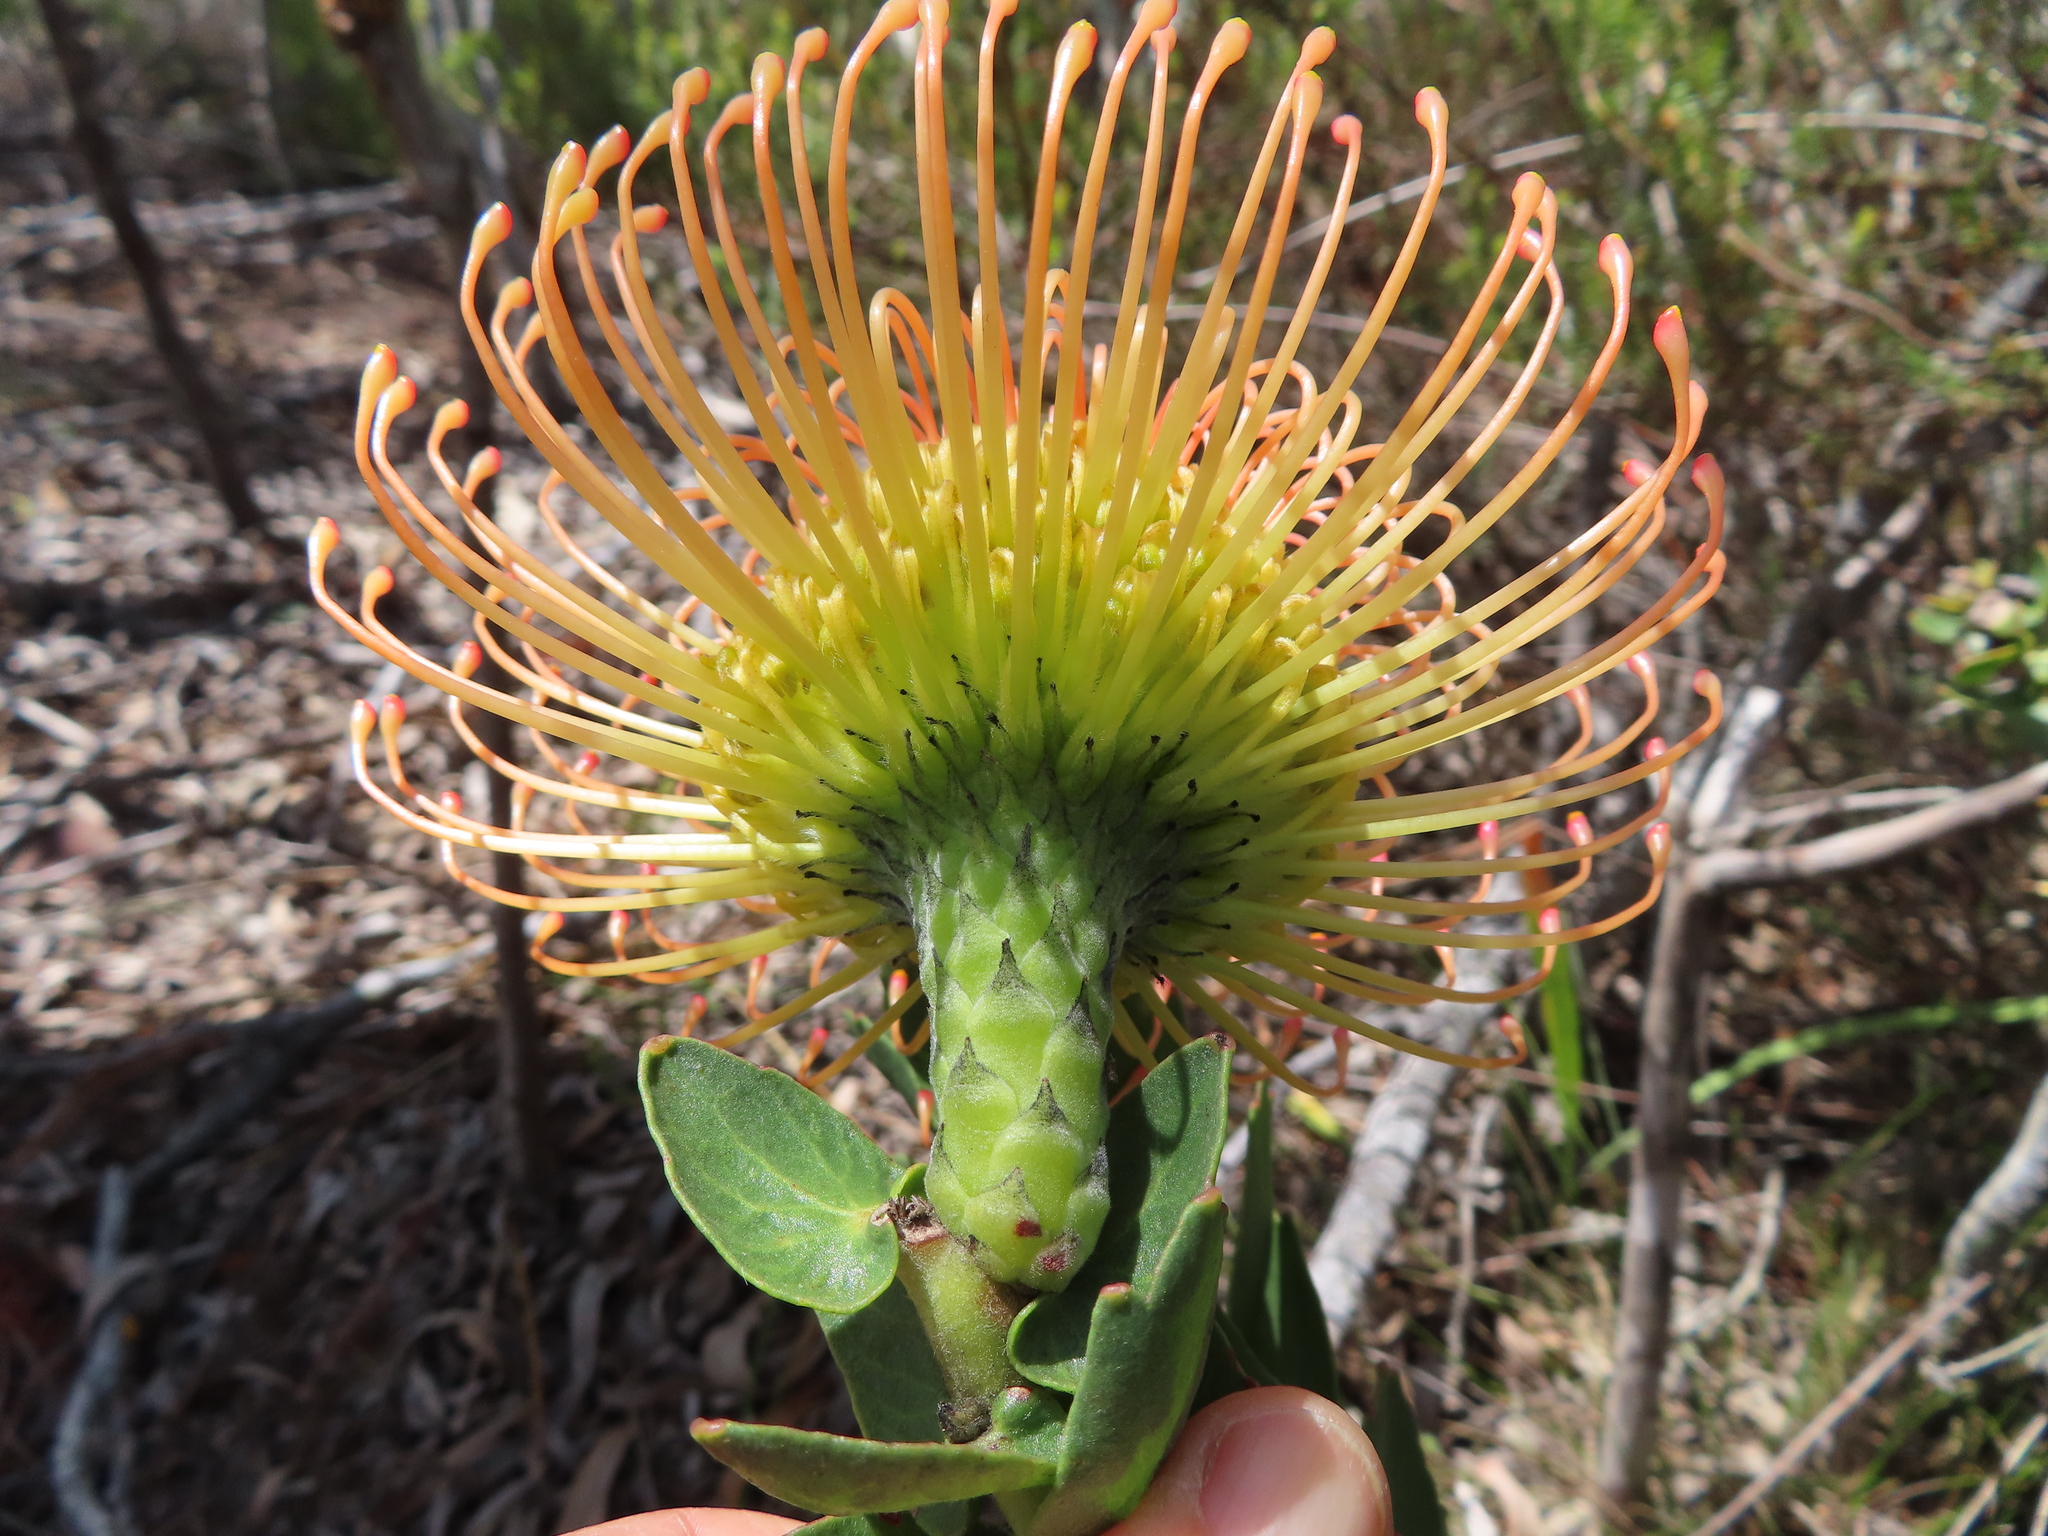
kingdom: Plantae
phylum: Tracheophyta
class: Magnoliopsida
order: Proteales
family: Proteaceae
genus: Leucospermum
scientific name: Leucospermum cordifolium
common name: Red pincushion-protea
